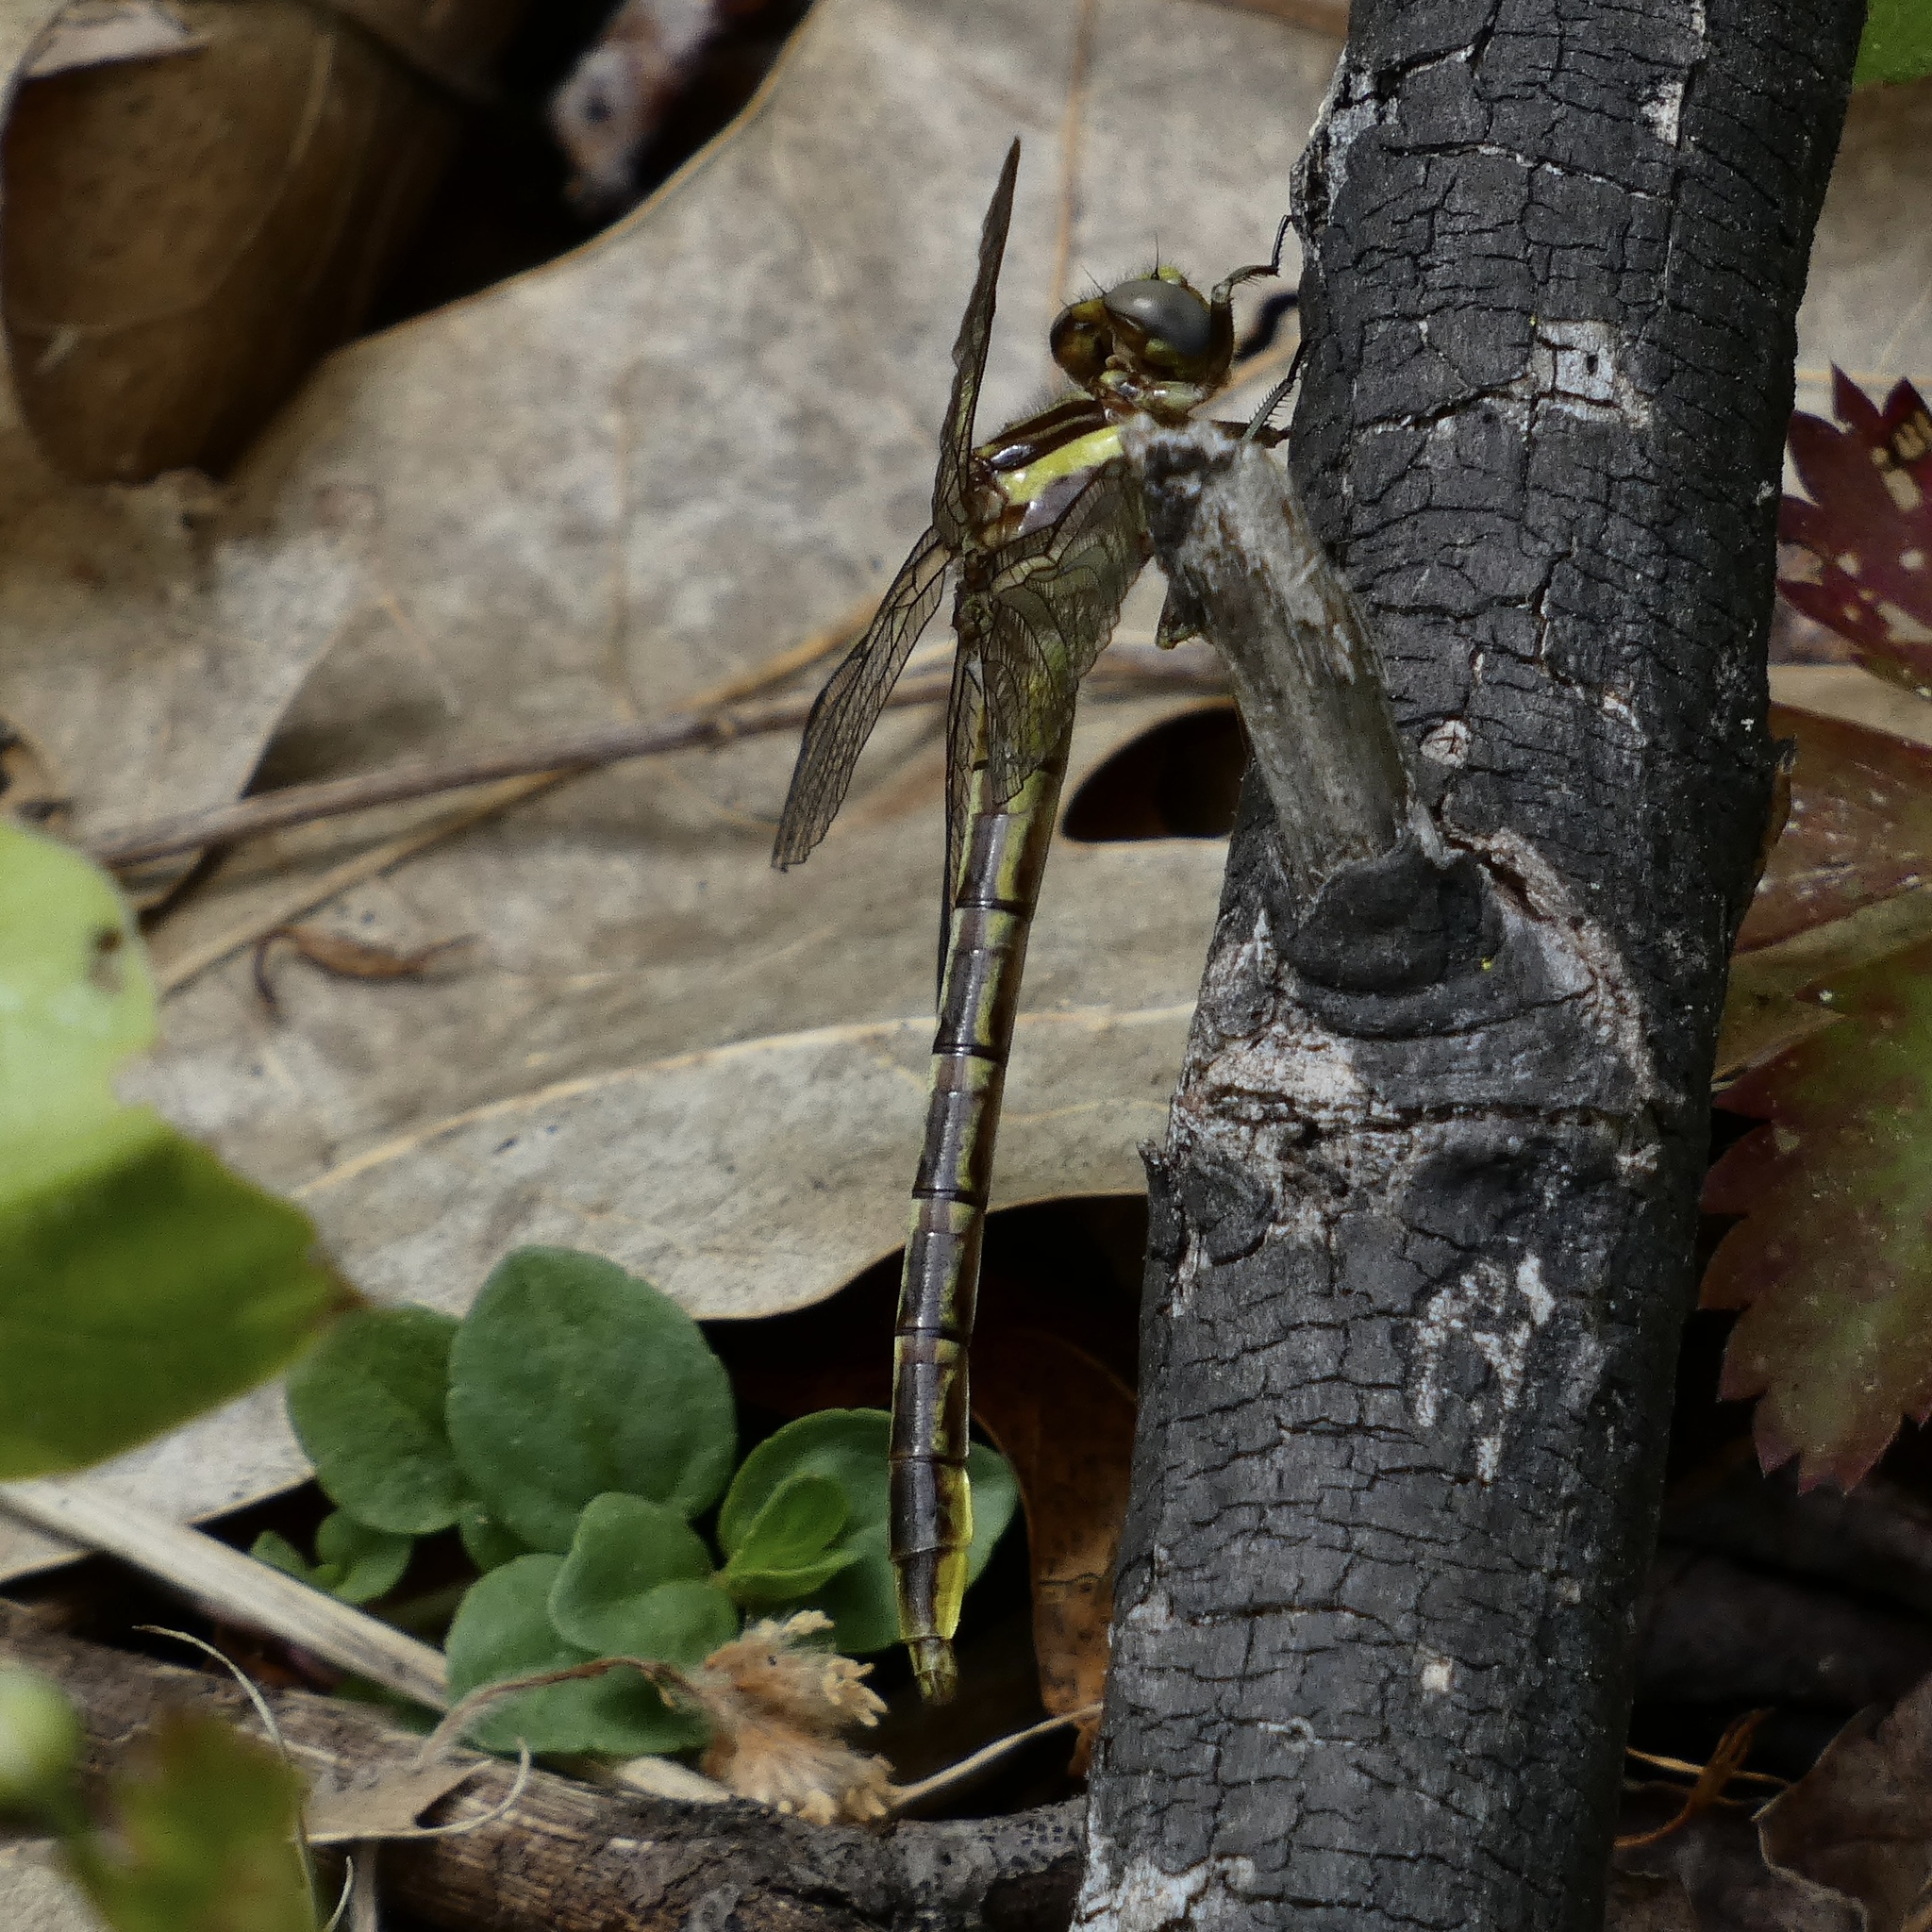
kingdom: Animalia
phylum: Arthropoda
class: Insecta
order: Odonata
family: Gomphidae
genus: Phanogomphus
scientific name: Phanogomphus exilis
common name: Lancet clubtail
